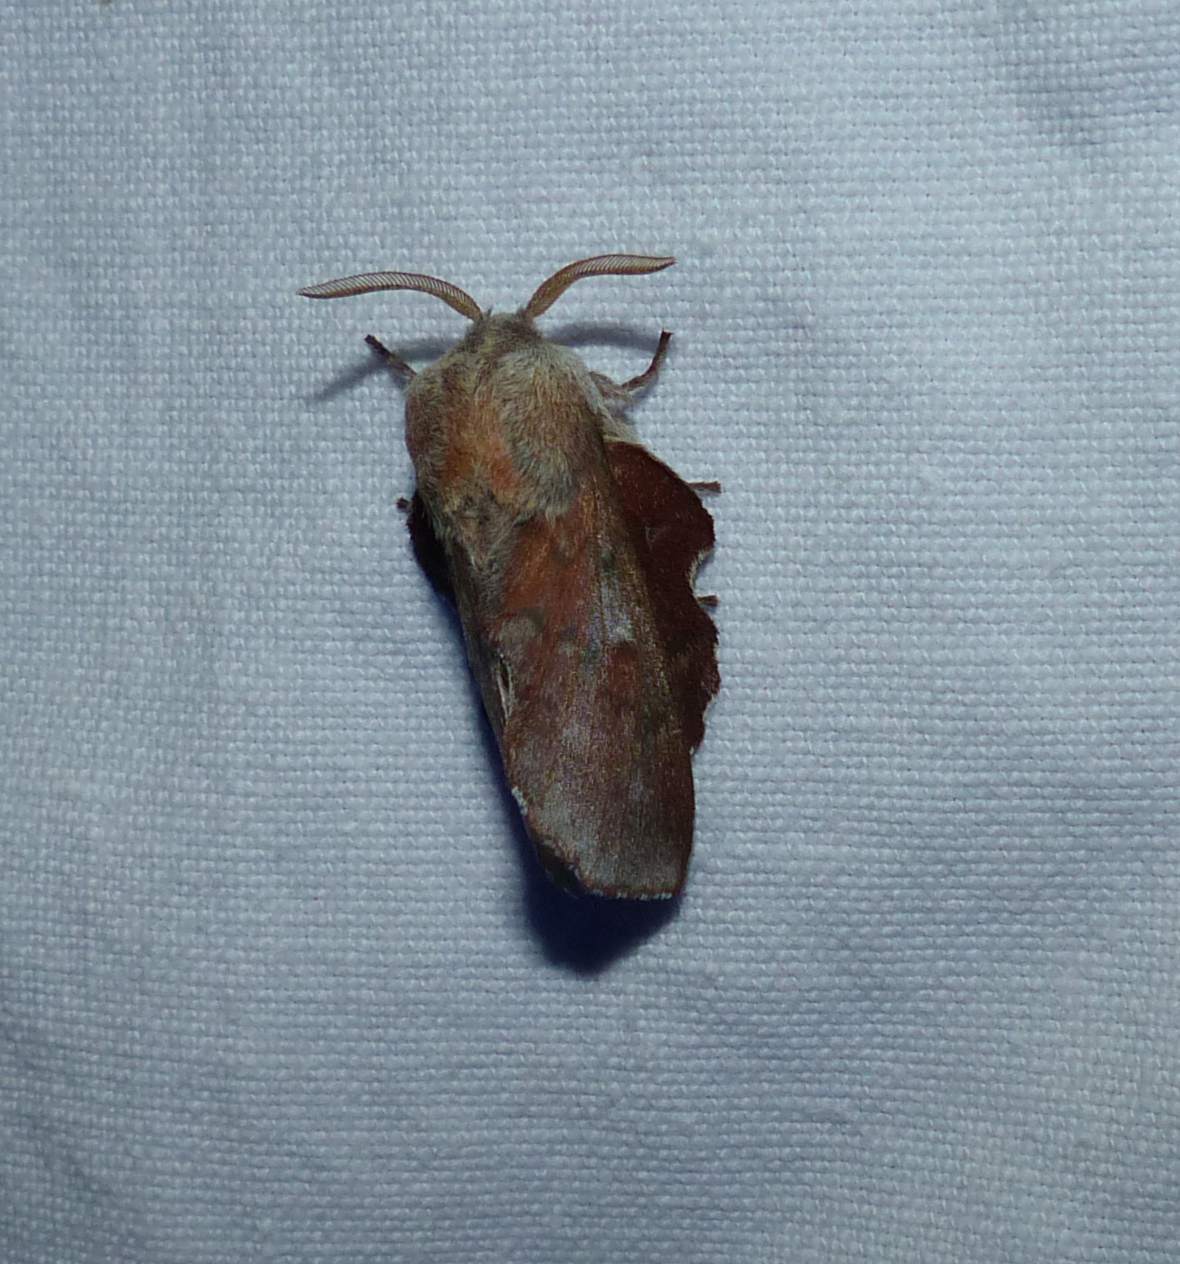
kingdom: Animalia
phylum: Arthropoda
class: Insecta
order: Lepidoptera
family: Lasiocampidae
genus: Phyllodesma
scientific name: Phyllodesma americana
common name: American lappet moth
